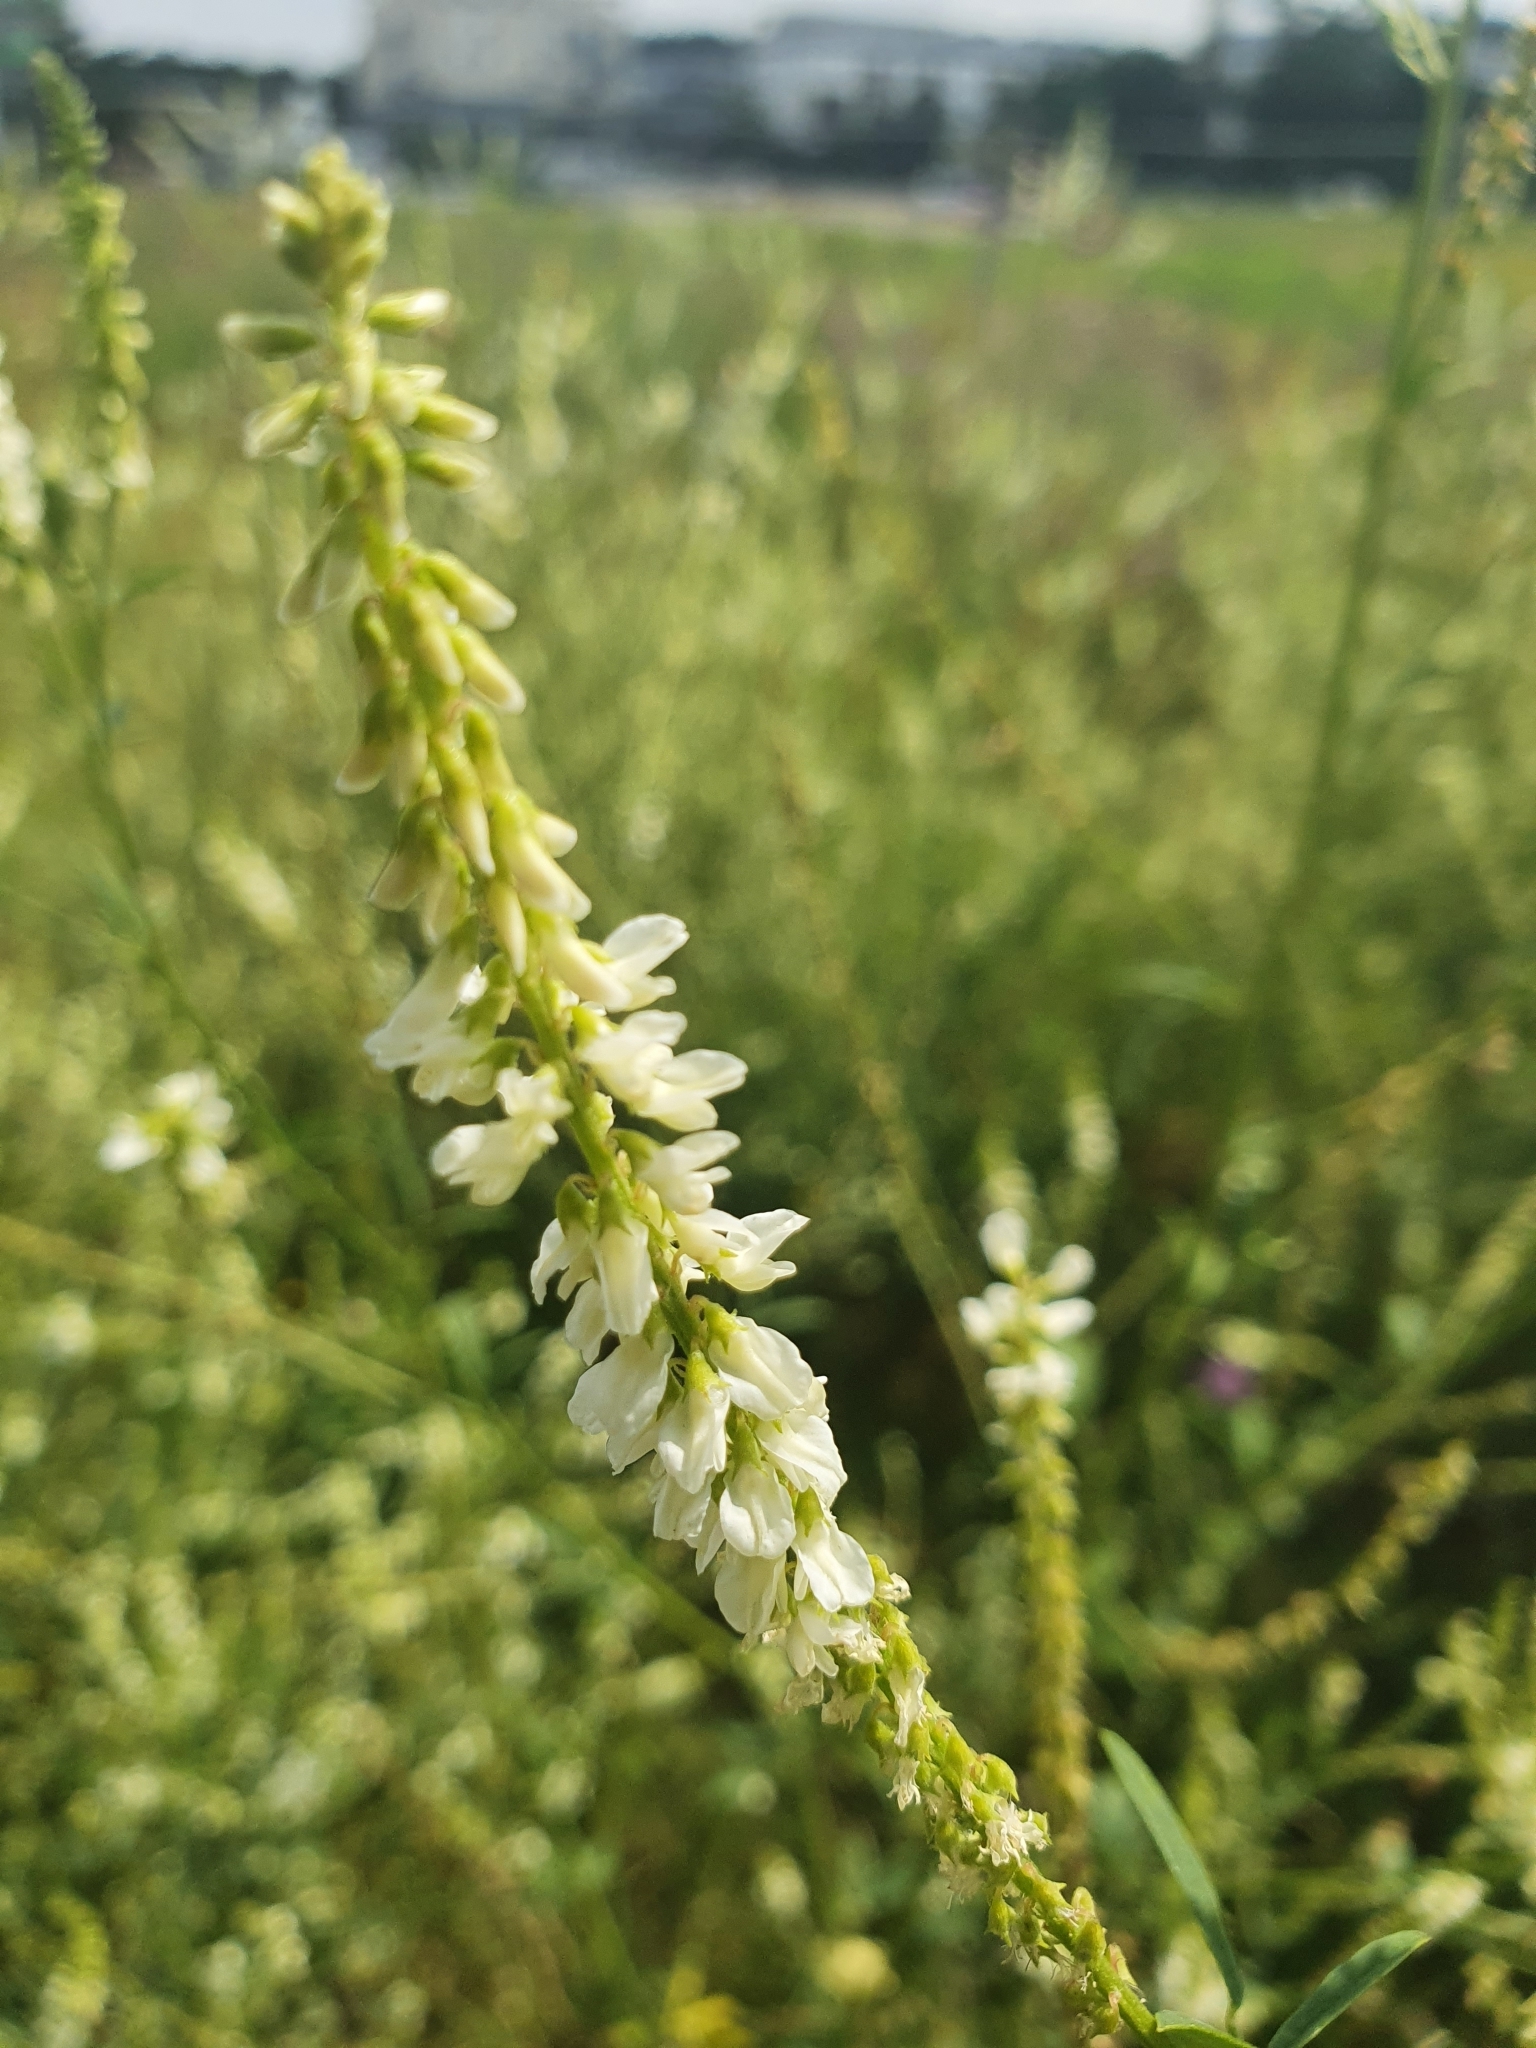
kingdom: Plantae
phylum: Tracheophyta
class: Magnoliopsida
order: Fabales
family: Fabaceae
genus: Melilotus
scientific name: Melilotus albus
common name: White melilot
